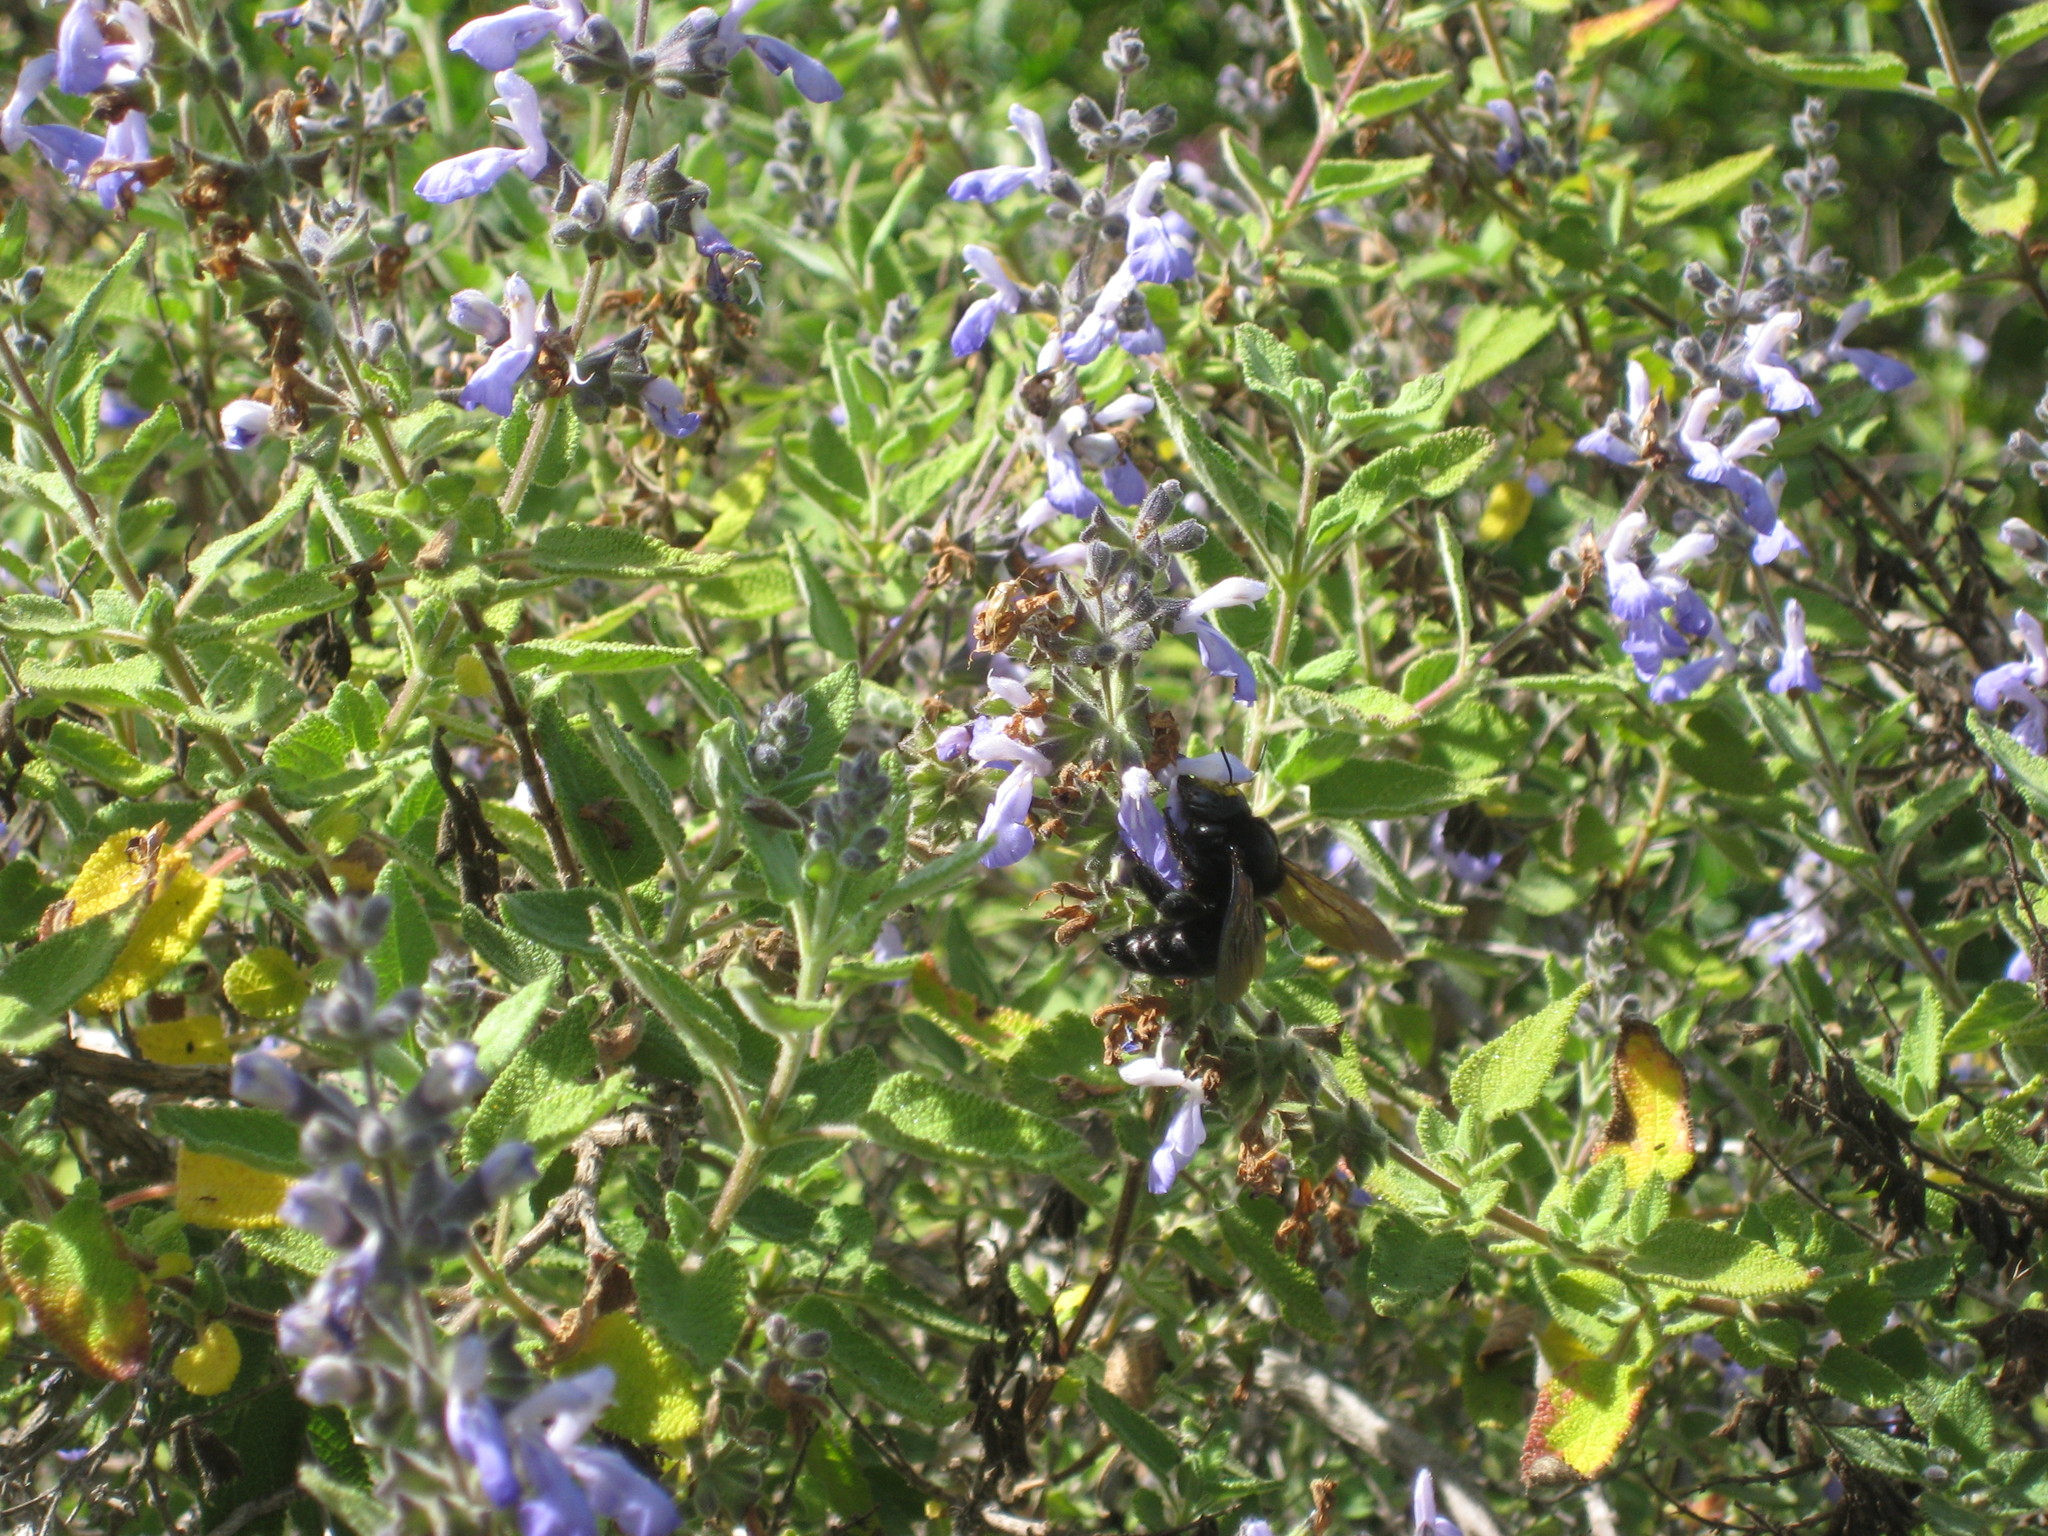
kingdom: Animalia
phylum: Arthropoda
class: Insecta
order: Hymenoptera
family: Apidae
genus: Xylocopa
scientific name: Xylocopa sonorina
